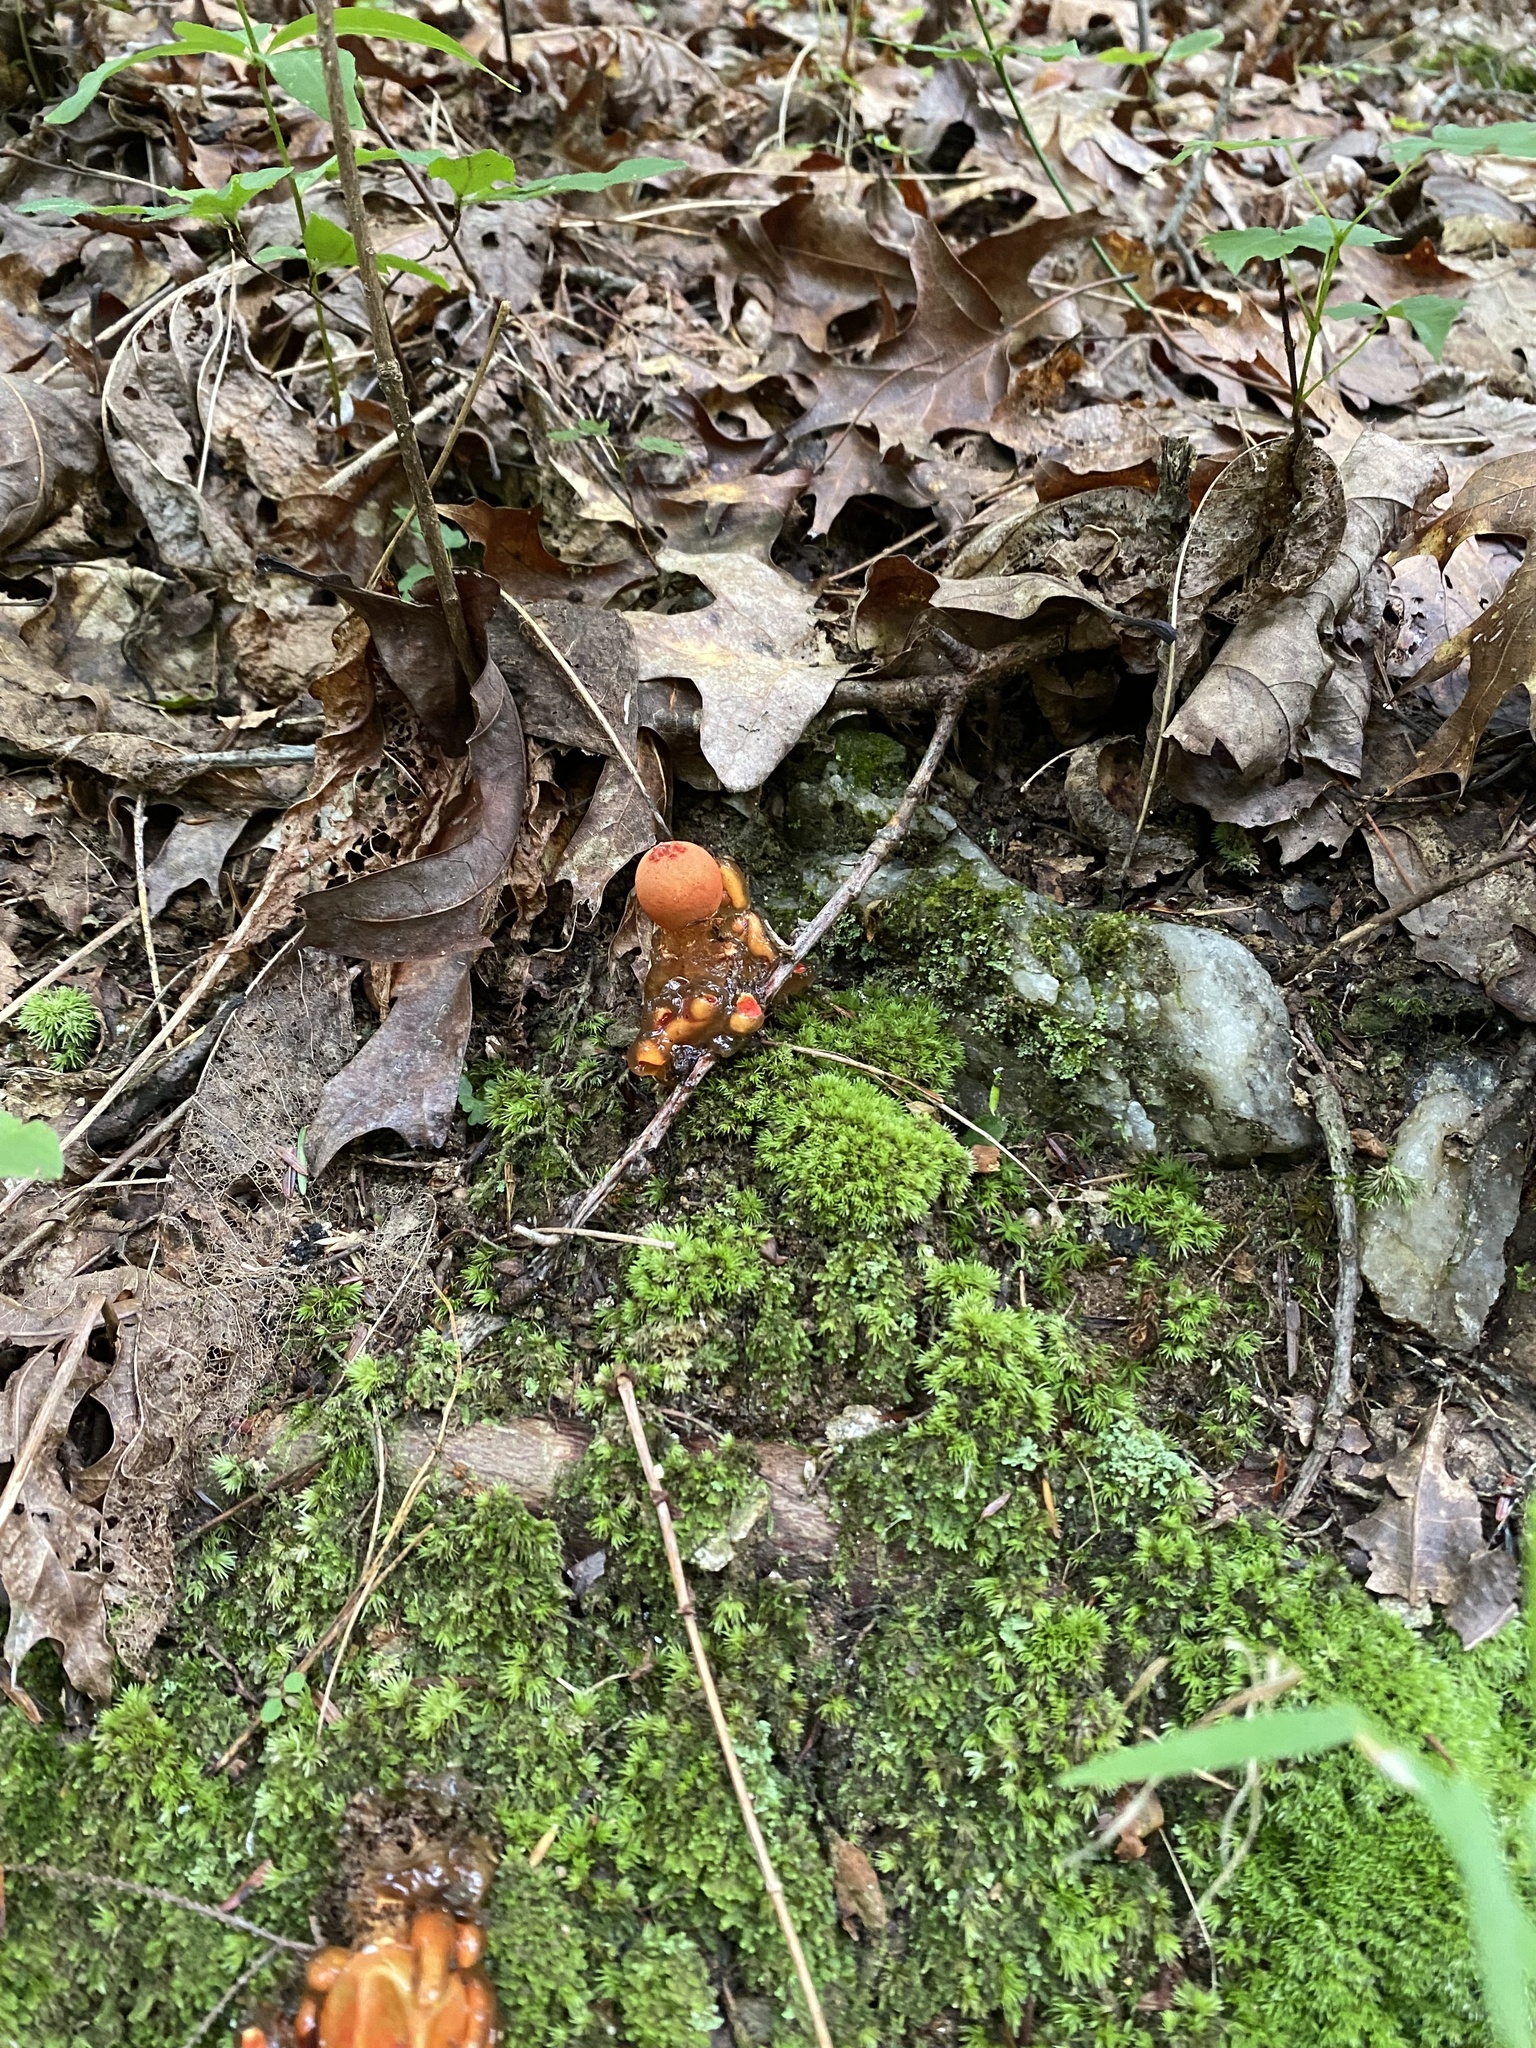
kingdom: Fungi
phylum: Basidiomycota
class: Agaricomycetes
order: Boletales
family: Calostomataceae
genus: Calostoma
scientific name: Calostoma cinnabarinum
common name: Stalked puffball-in-aspic
